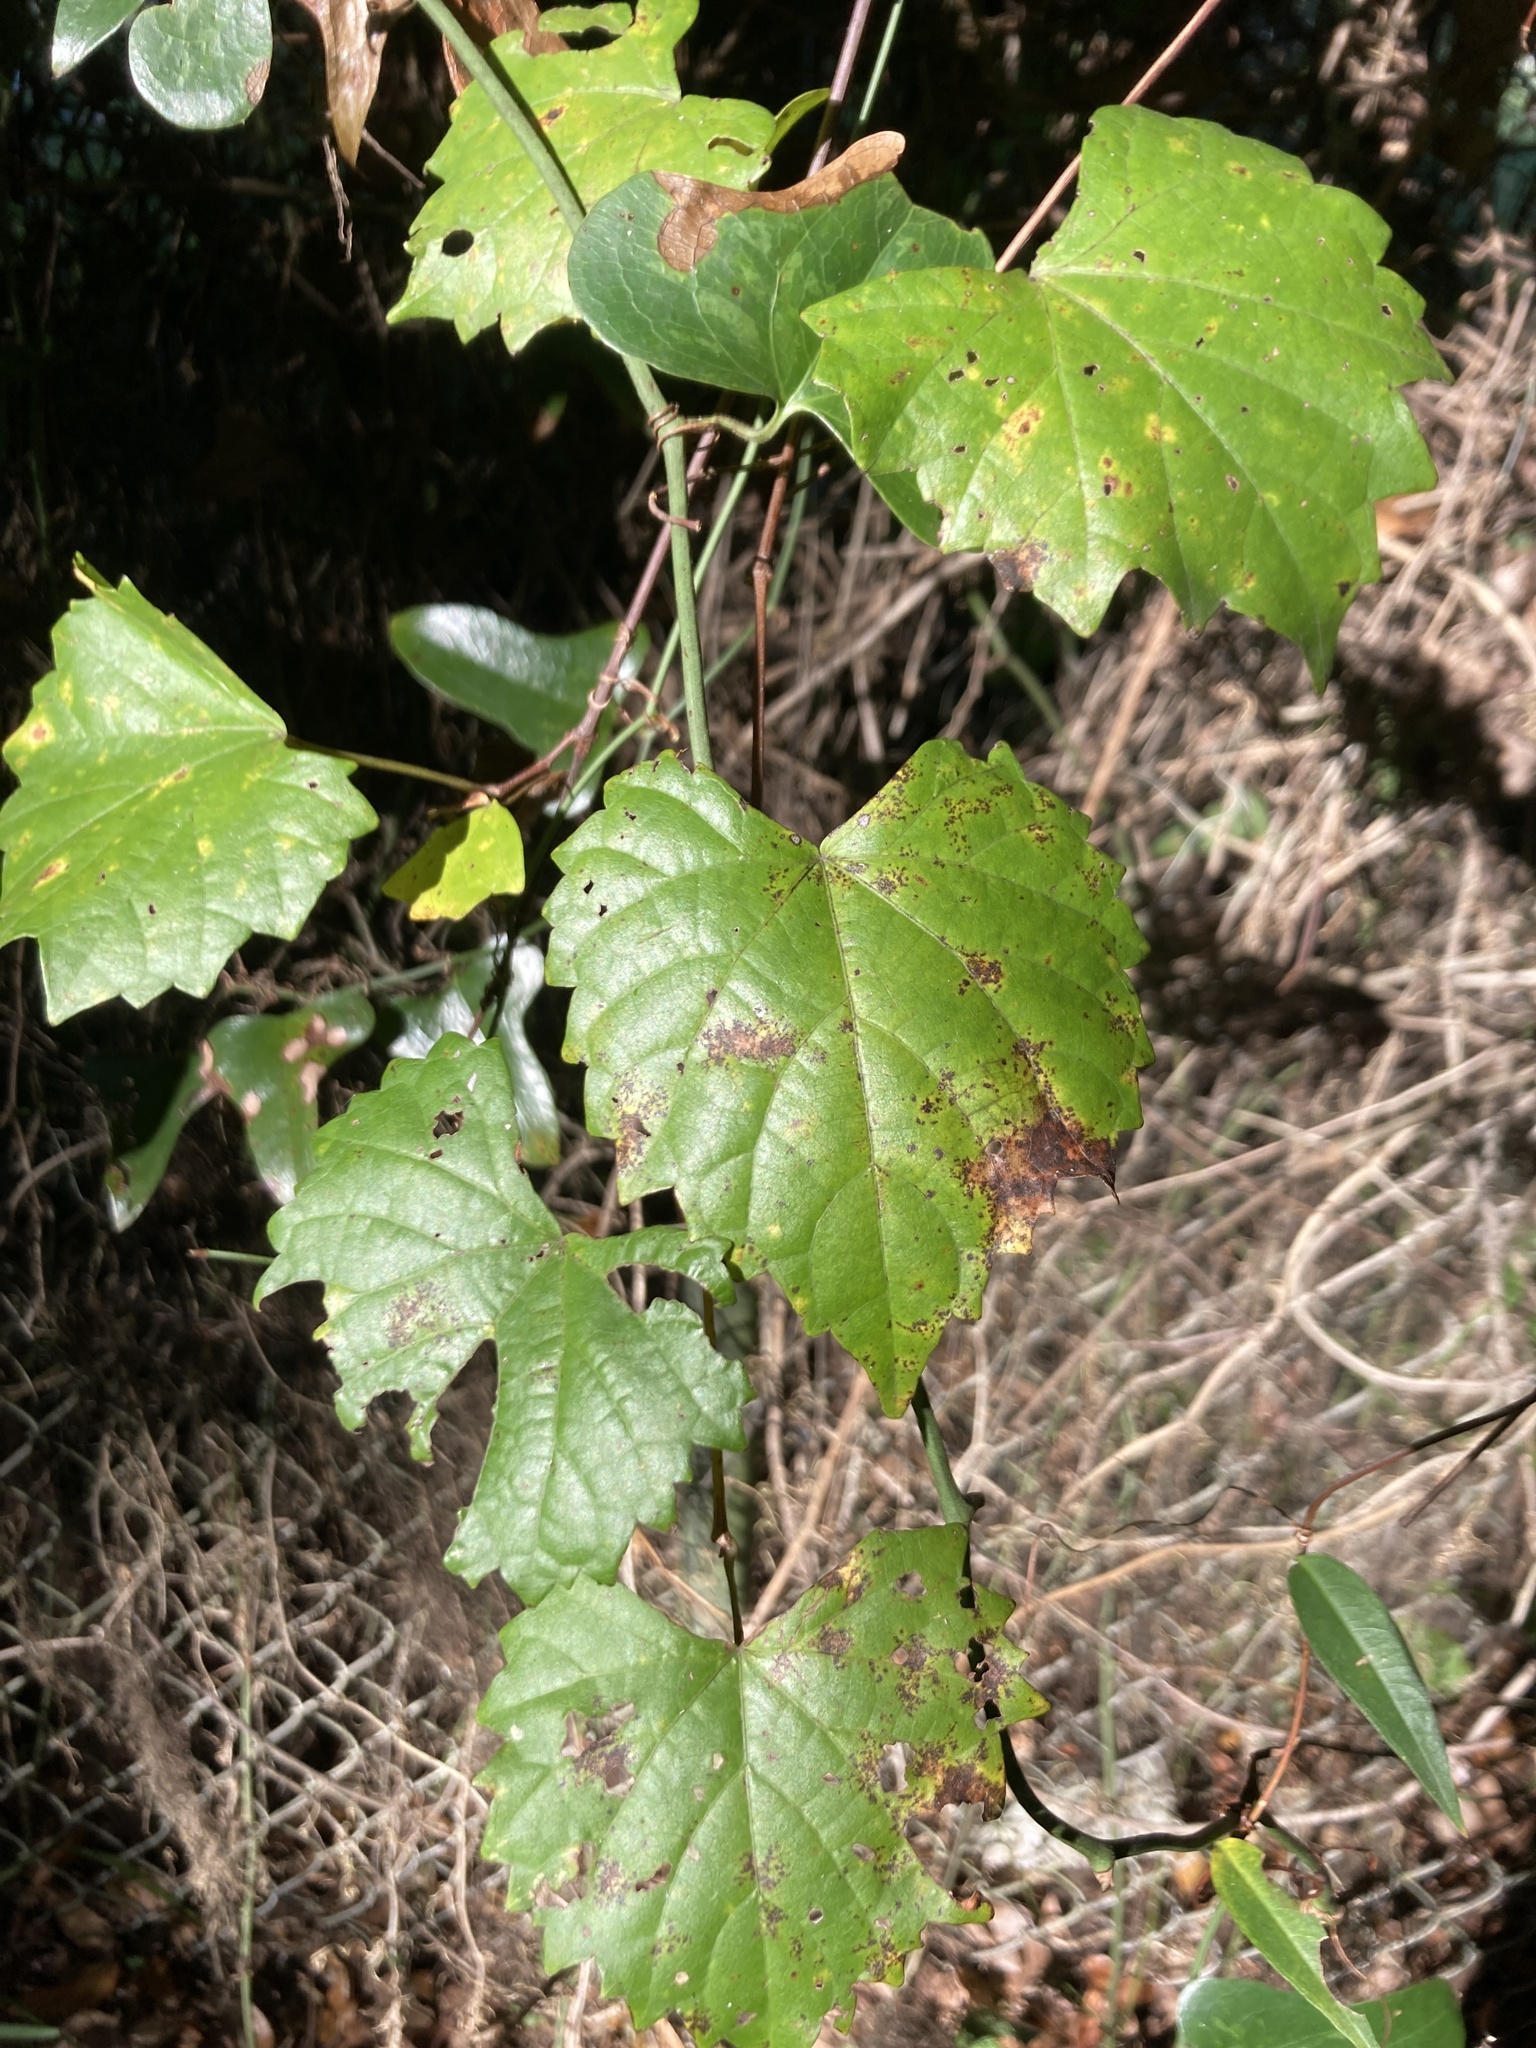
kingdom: Plantae
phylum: Tracheophyta
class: Magnoliopsida
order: Vitales
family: Vitaceae
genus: Vitis
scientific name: Vitis rotundifolia
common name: Muscadine grape
